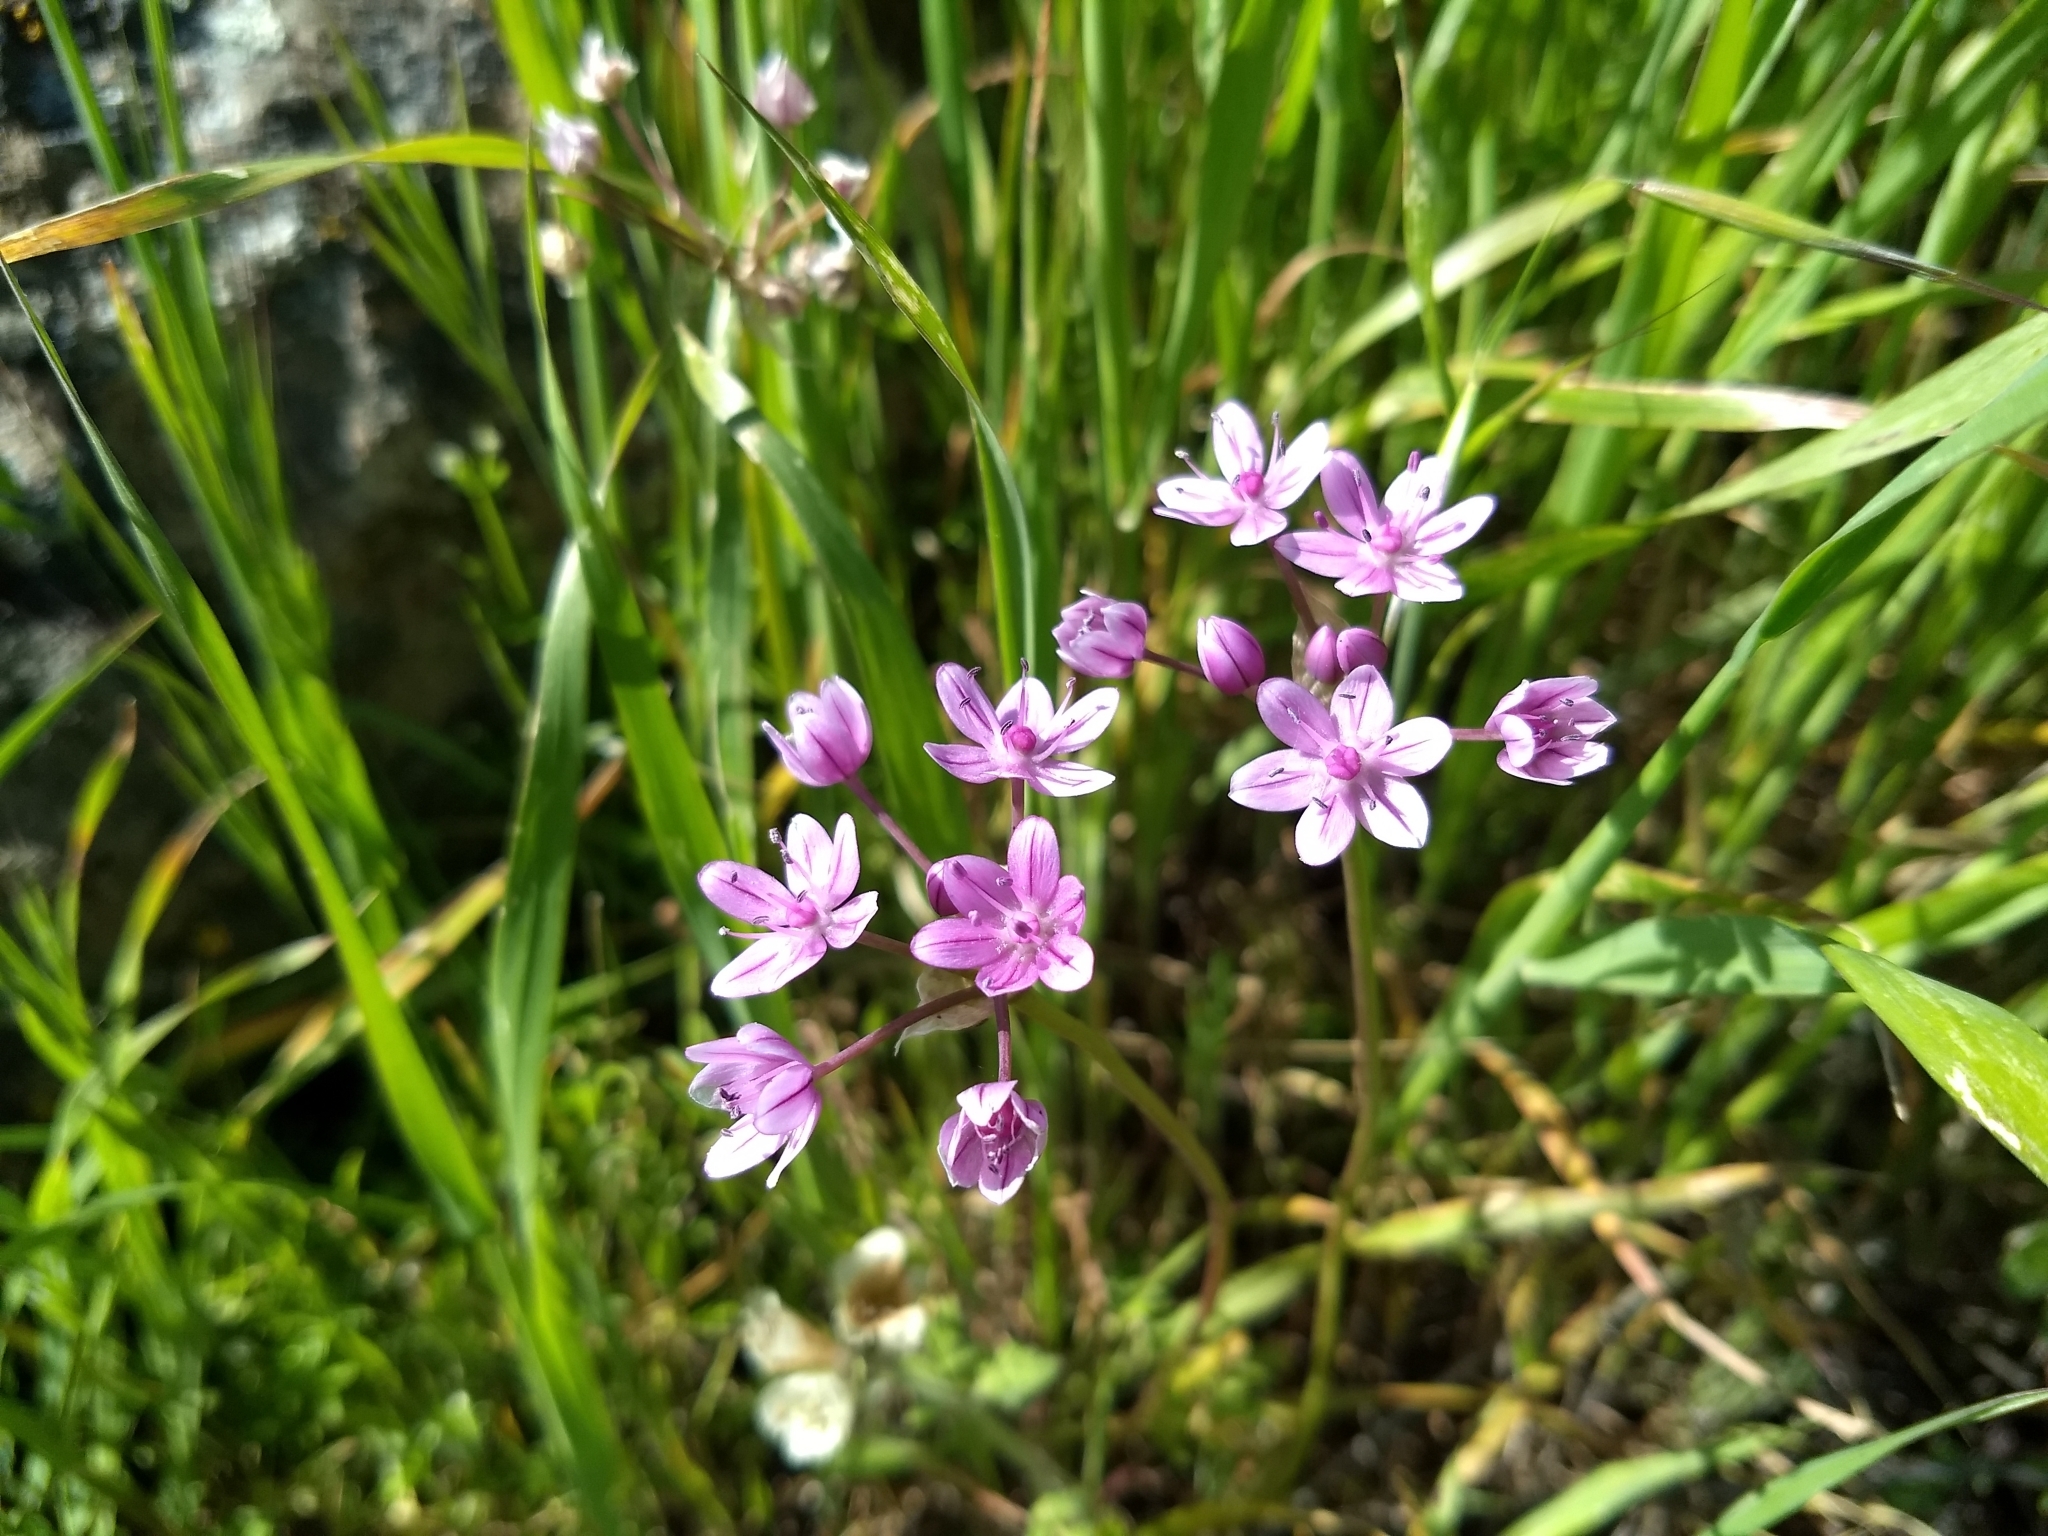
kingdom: Plantae
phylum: Tracheophyta
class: Liliopsida
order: Asparagales
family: Amaryllidaceae
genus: Allium
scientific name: Allium hyalinum
